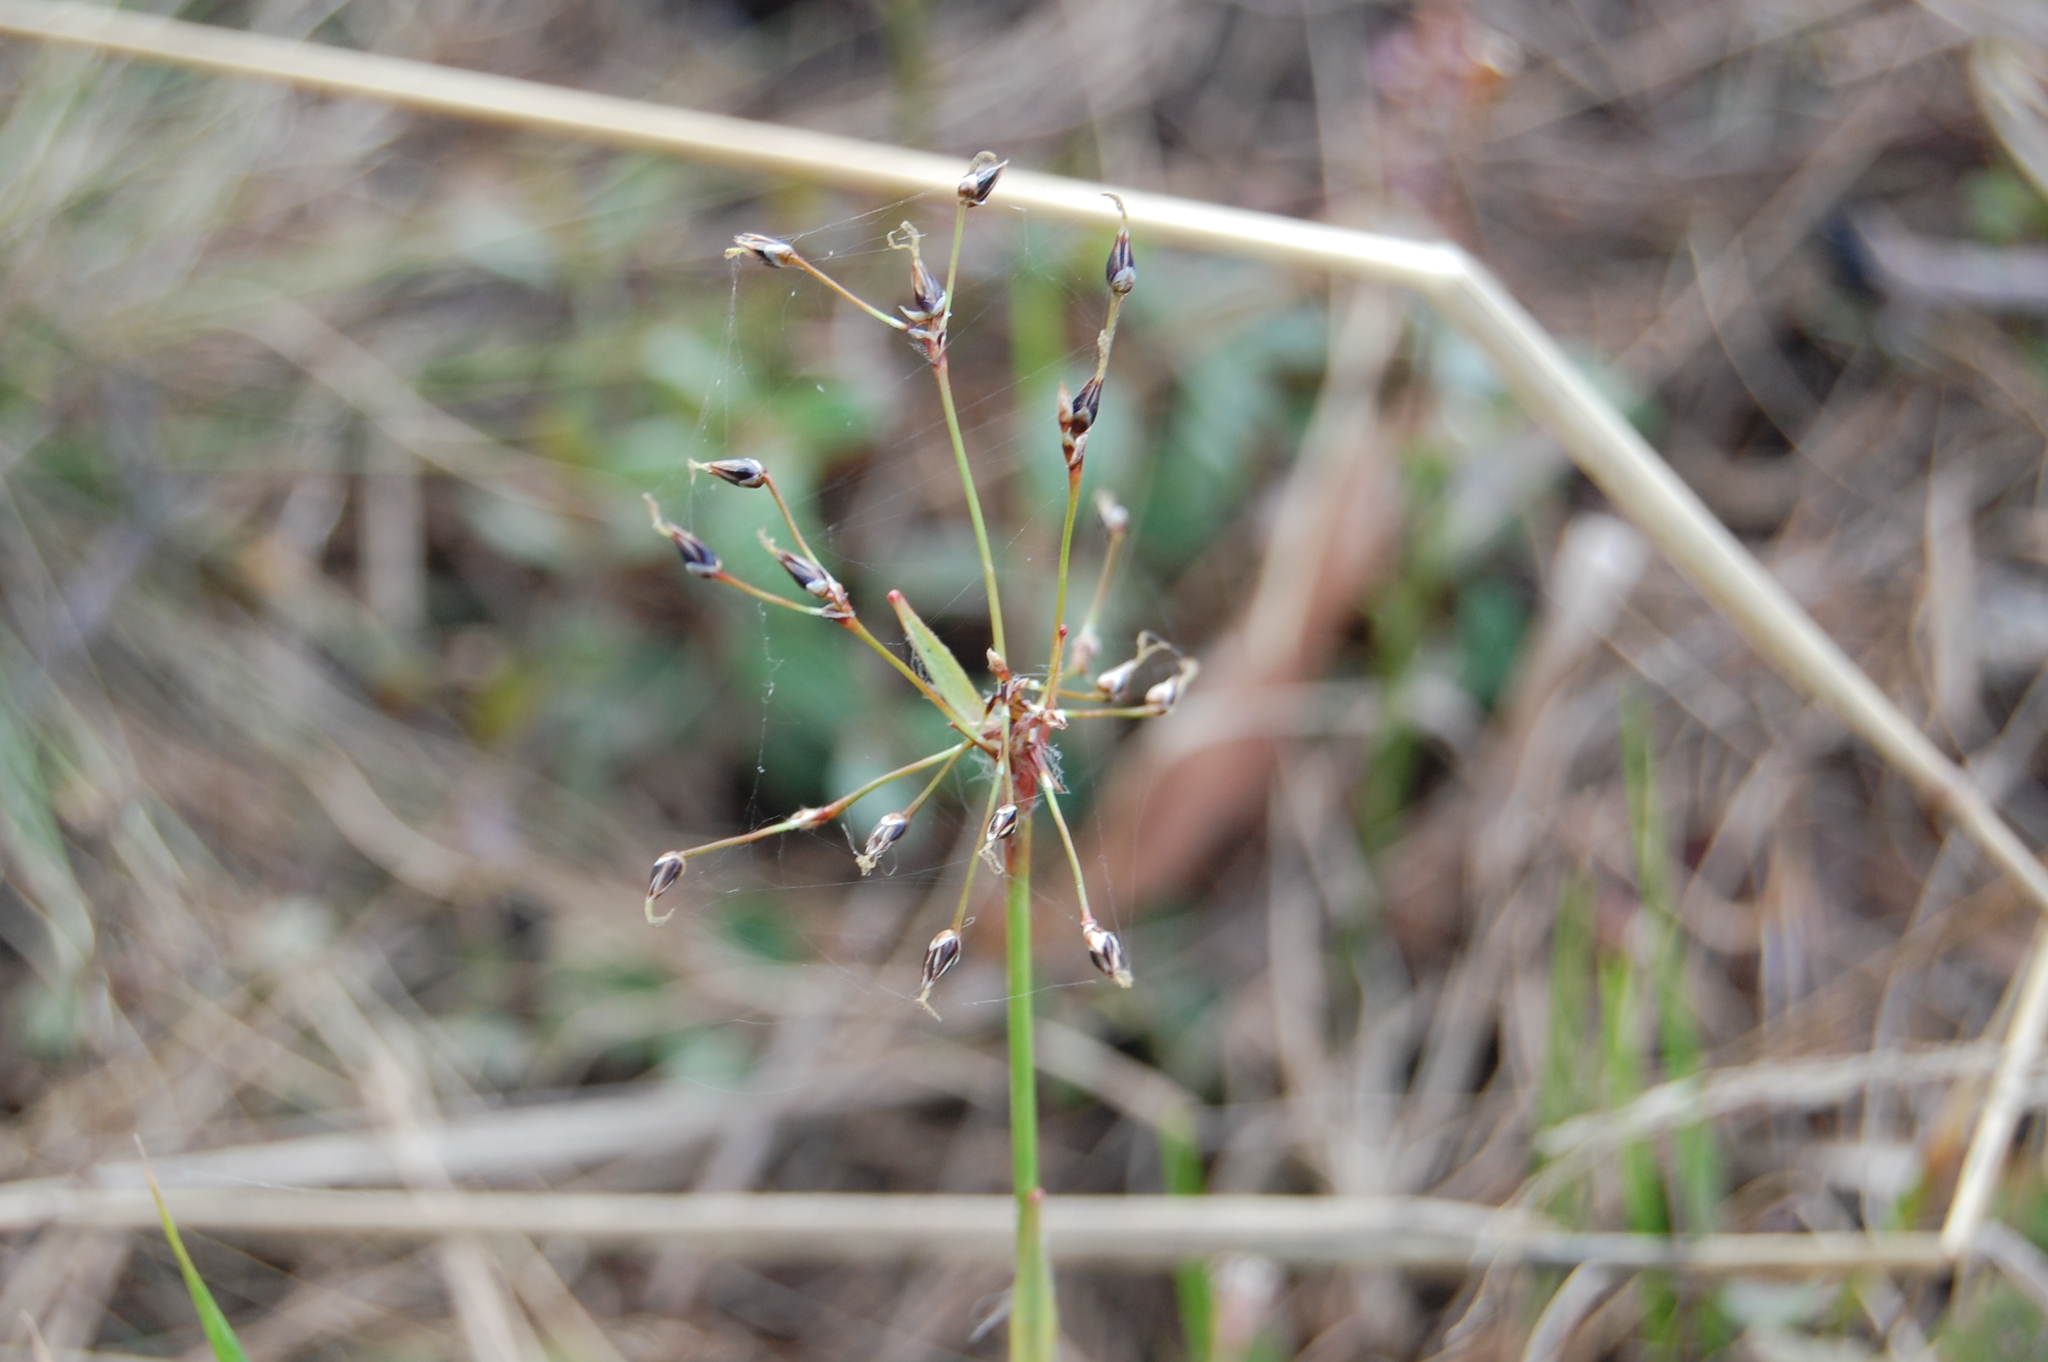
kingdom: Plantae
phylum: Tracheophyta
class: Liliopsida
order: Poales
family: Juncaceae
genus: Luzula
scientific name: Luzula pilosa
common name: Hairy wood-rush
